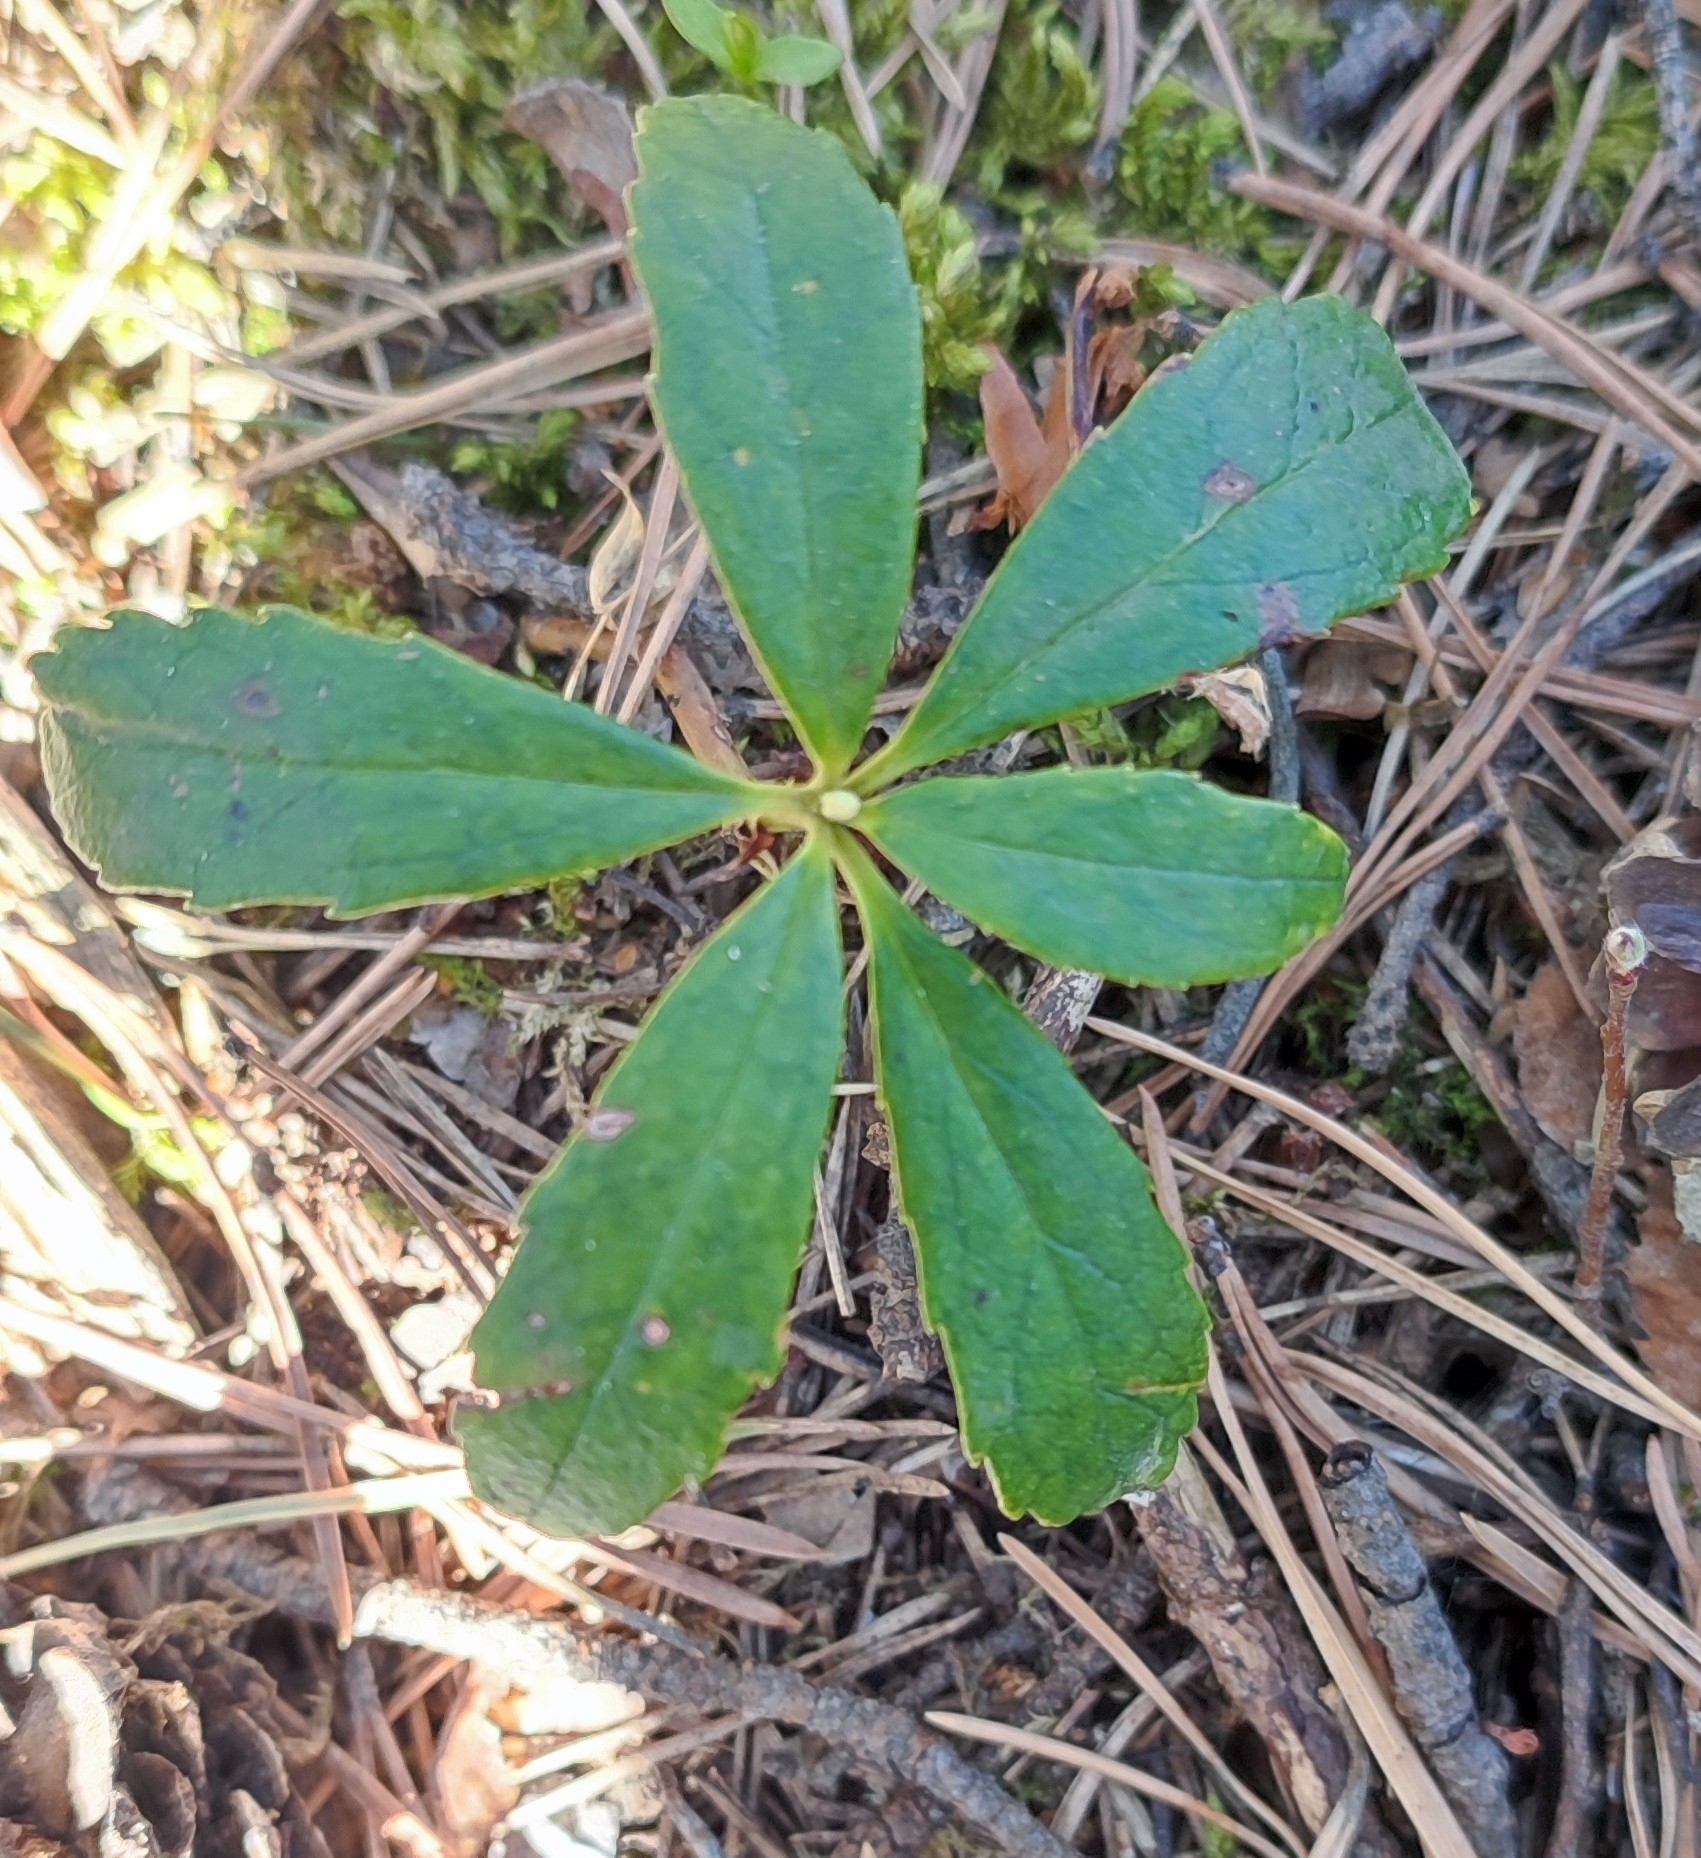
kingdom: Plantae
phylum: Tracheophyta
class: Magnoliopsida
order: Ericales
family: Ericaceae
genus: Chimaphila
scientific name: Chimaphila umbellata
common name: Pipsissewa
